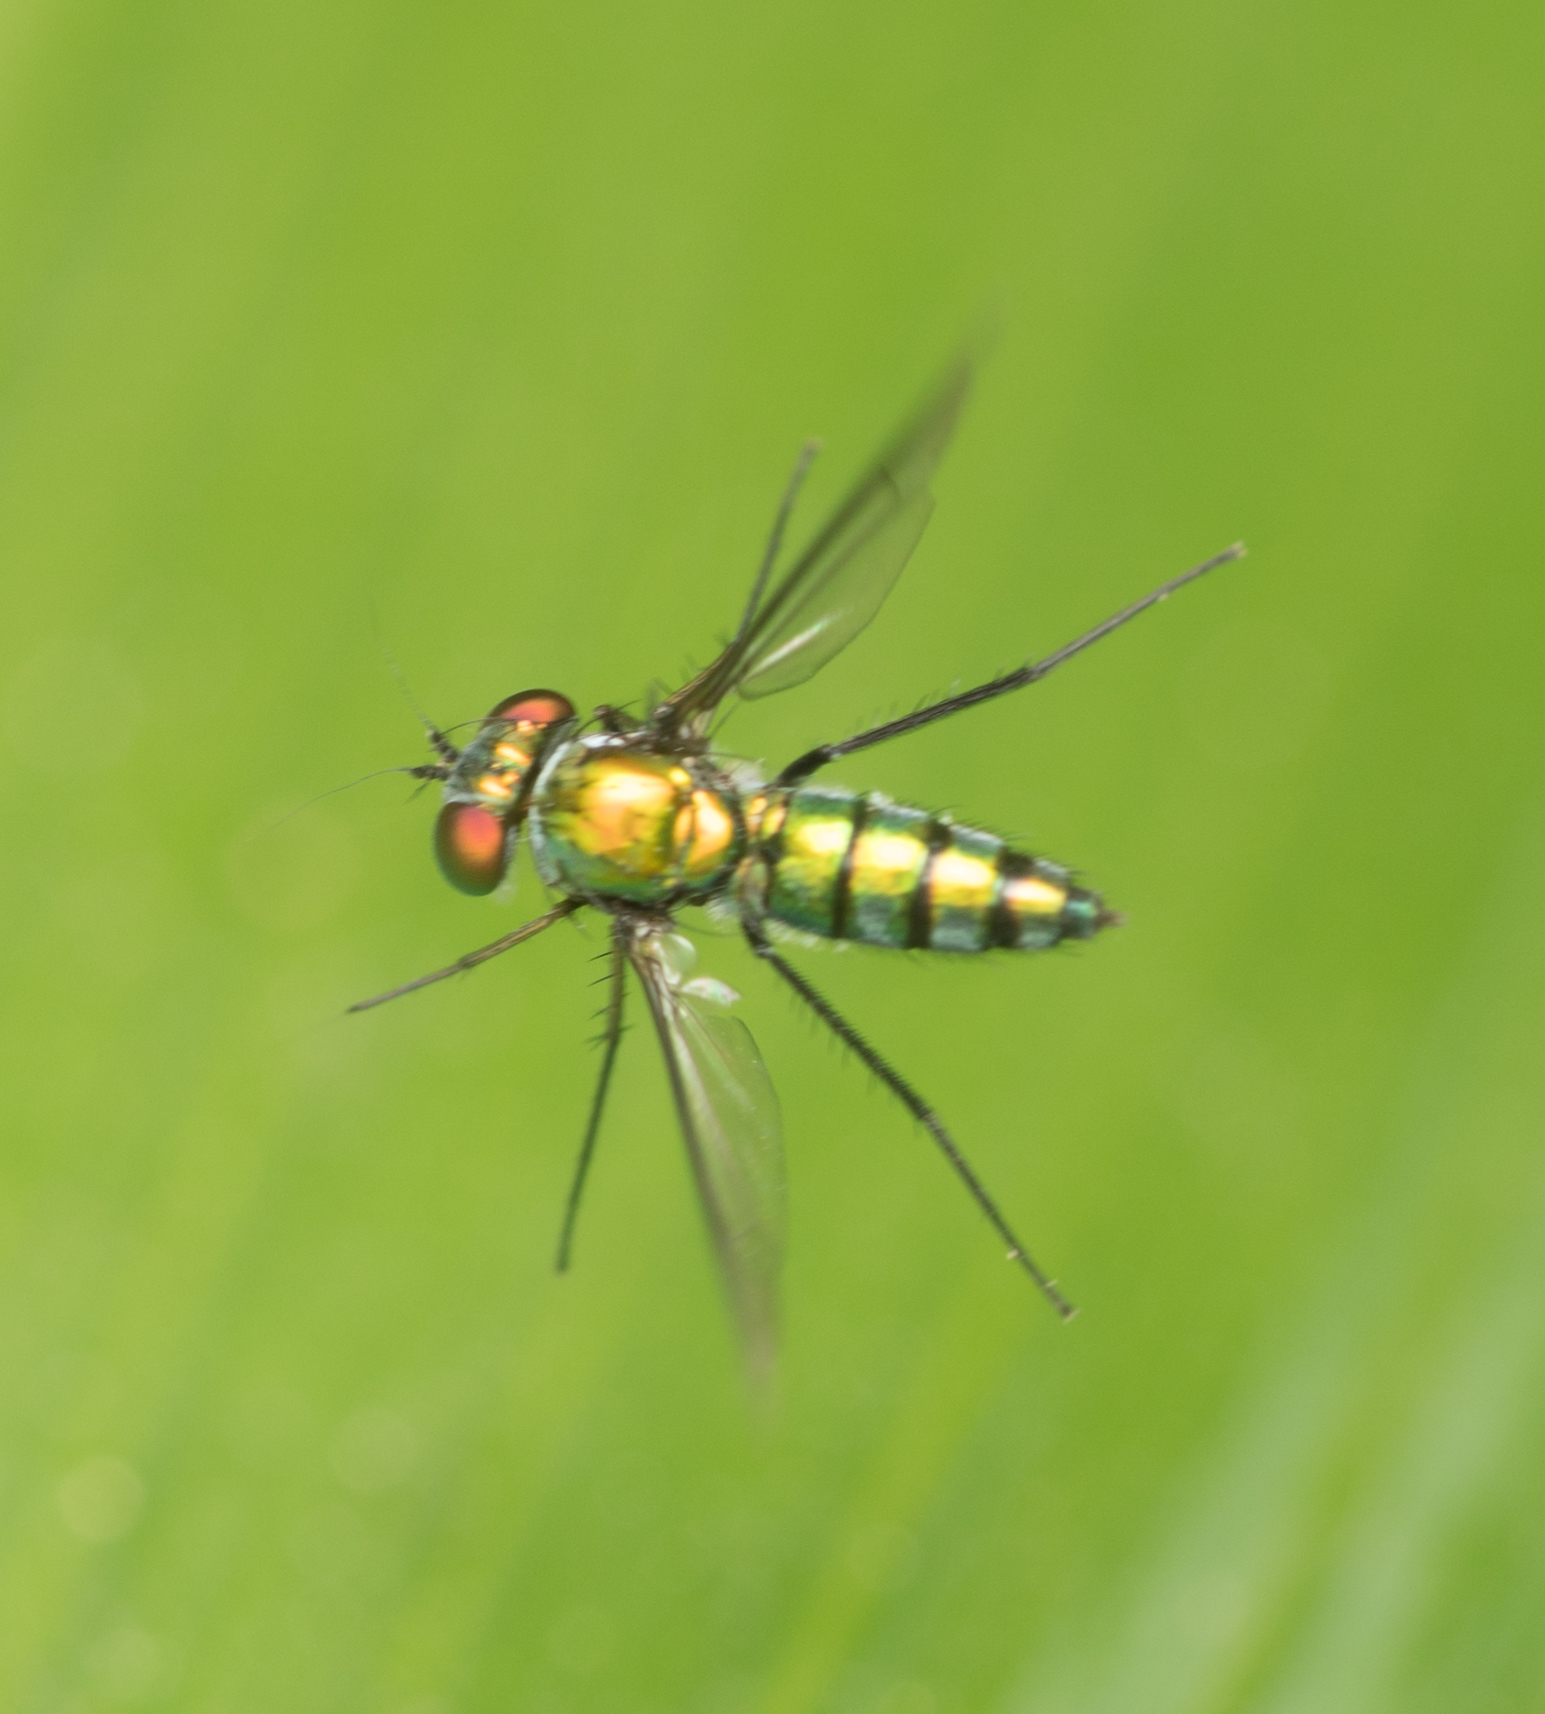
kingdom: Animalia
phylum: Arthropoda
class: Insecta
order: Diptera
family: Dolichopodidae
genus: Condylostylus
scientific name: Condylostylus longicornis
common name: Long-legged fly
